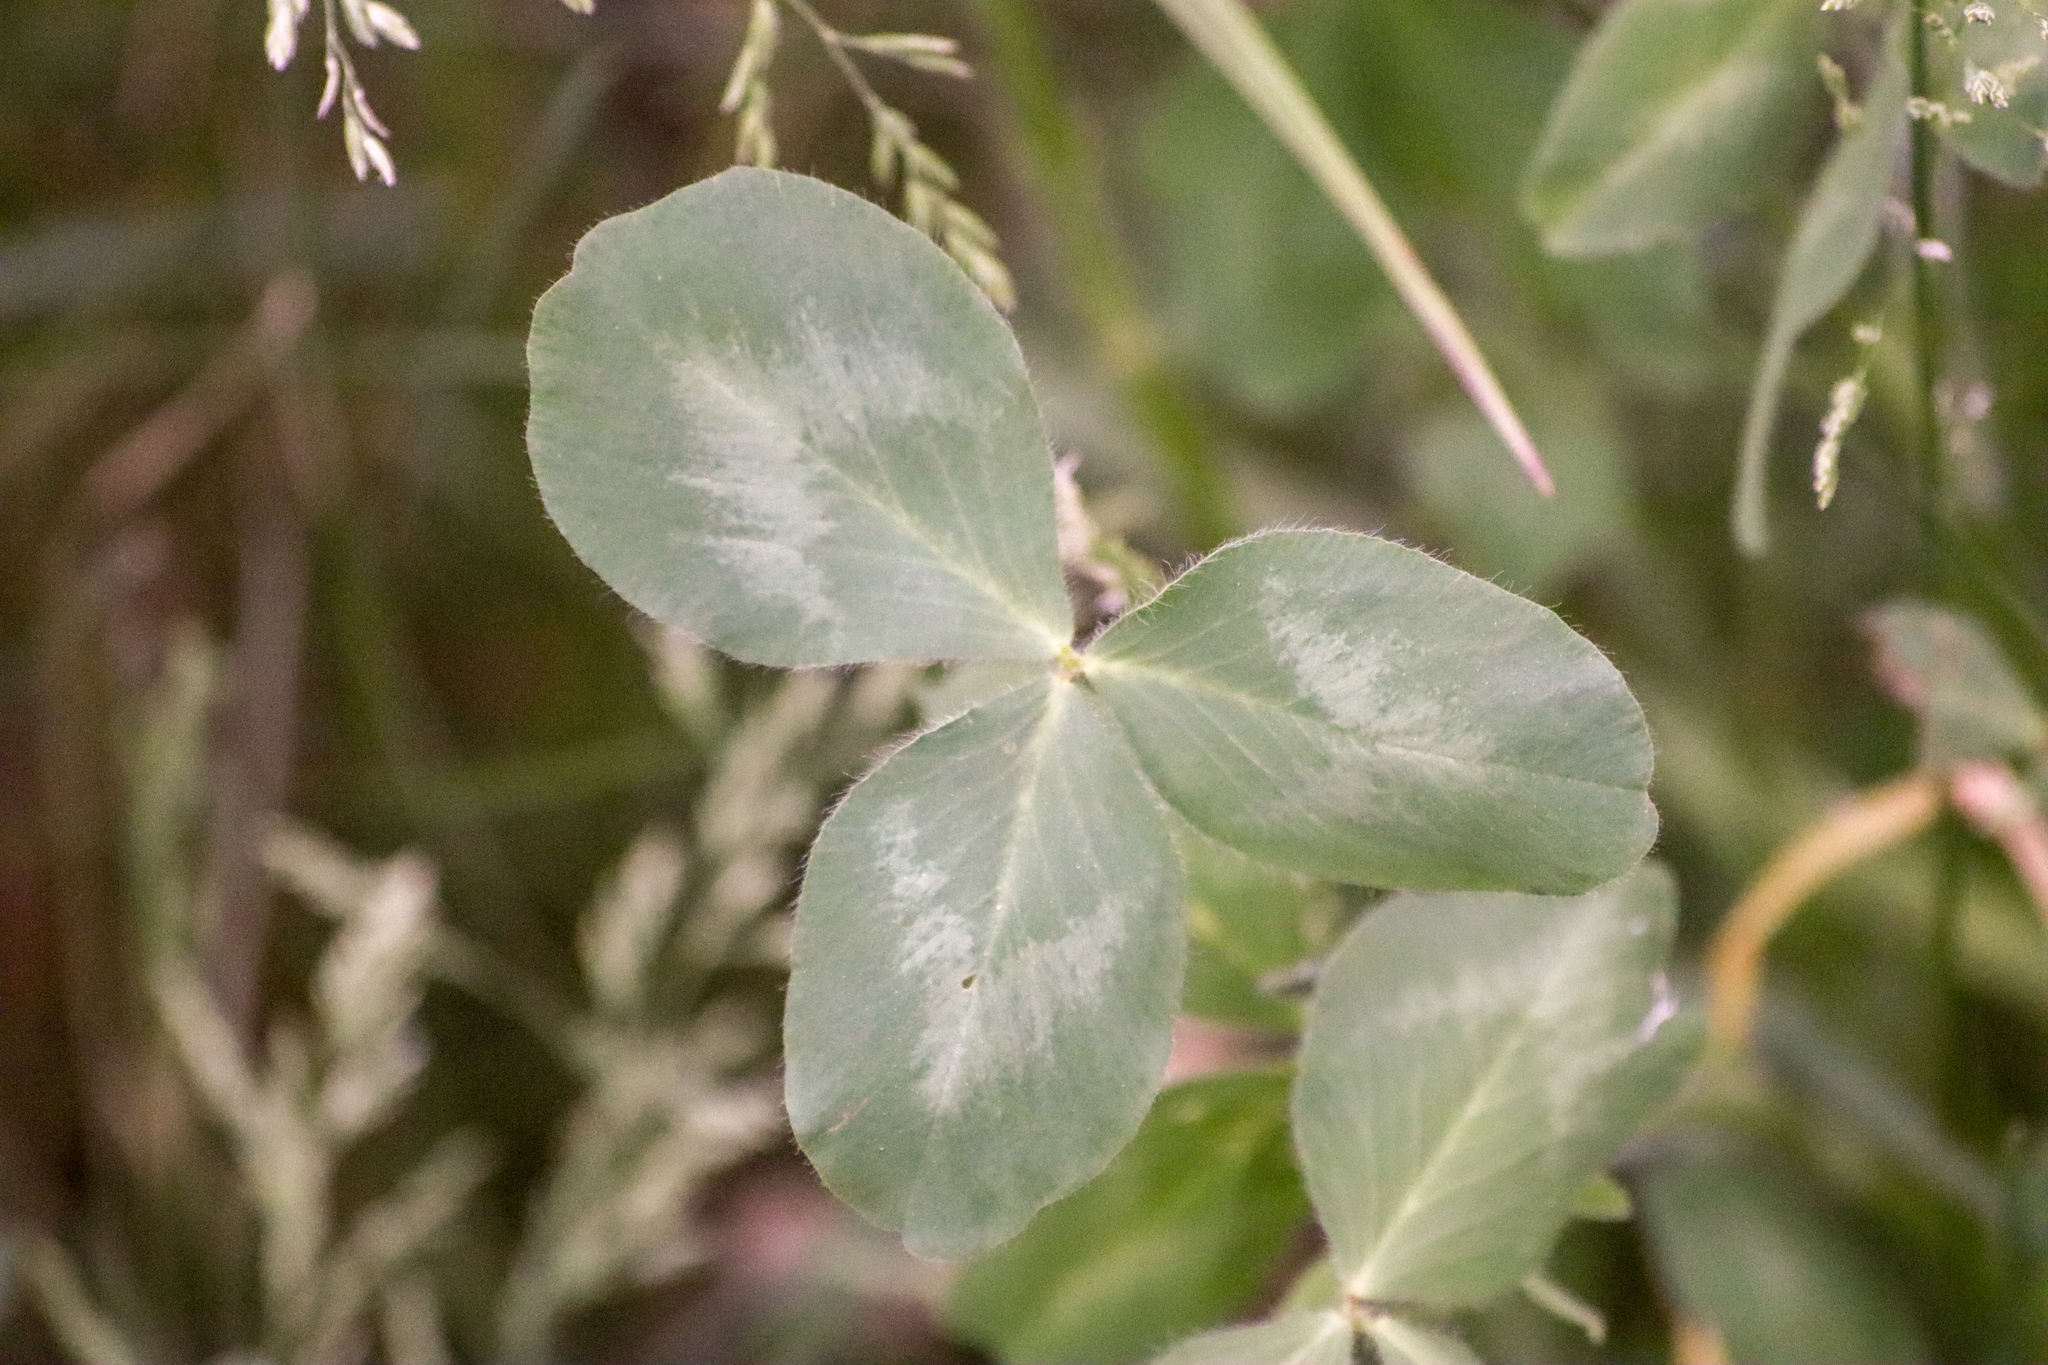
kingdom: Plantae
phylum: Tracheophyta
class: Magnoliopsida
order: Fabales
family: Fabaceae
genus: Trifolium
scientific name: Trifolium pratense
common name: Red clover
